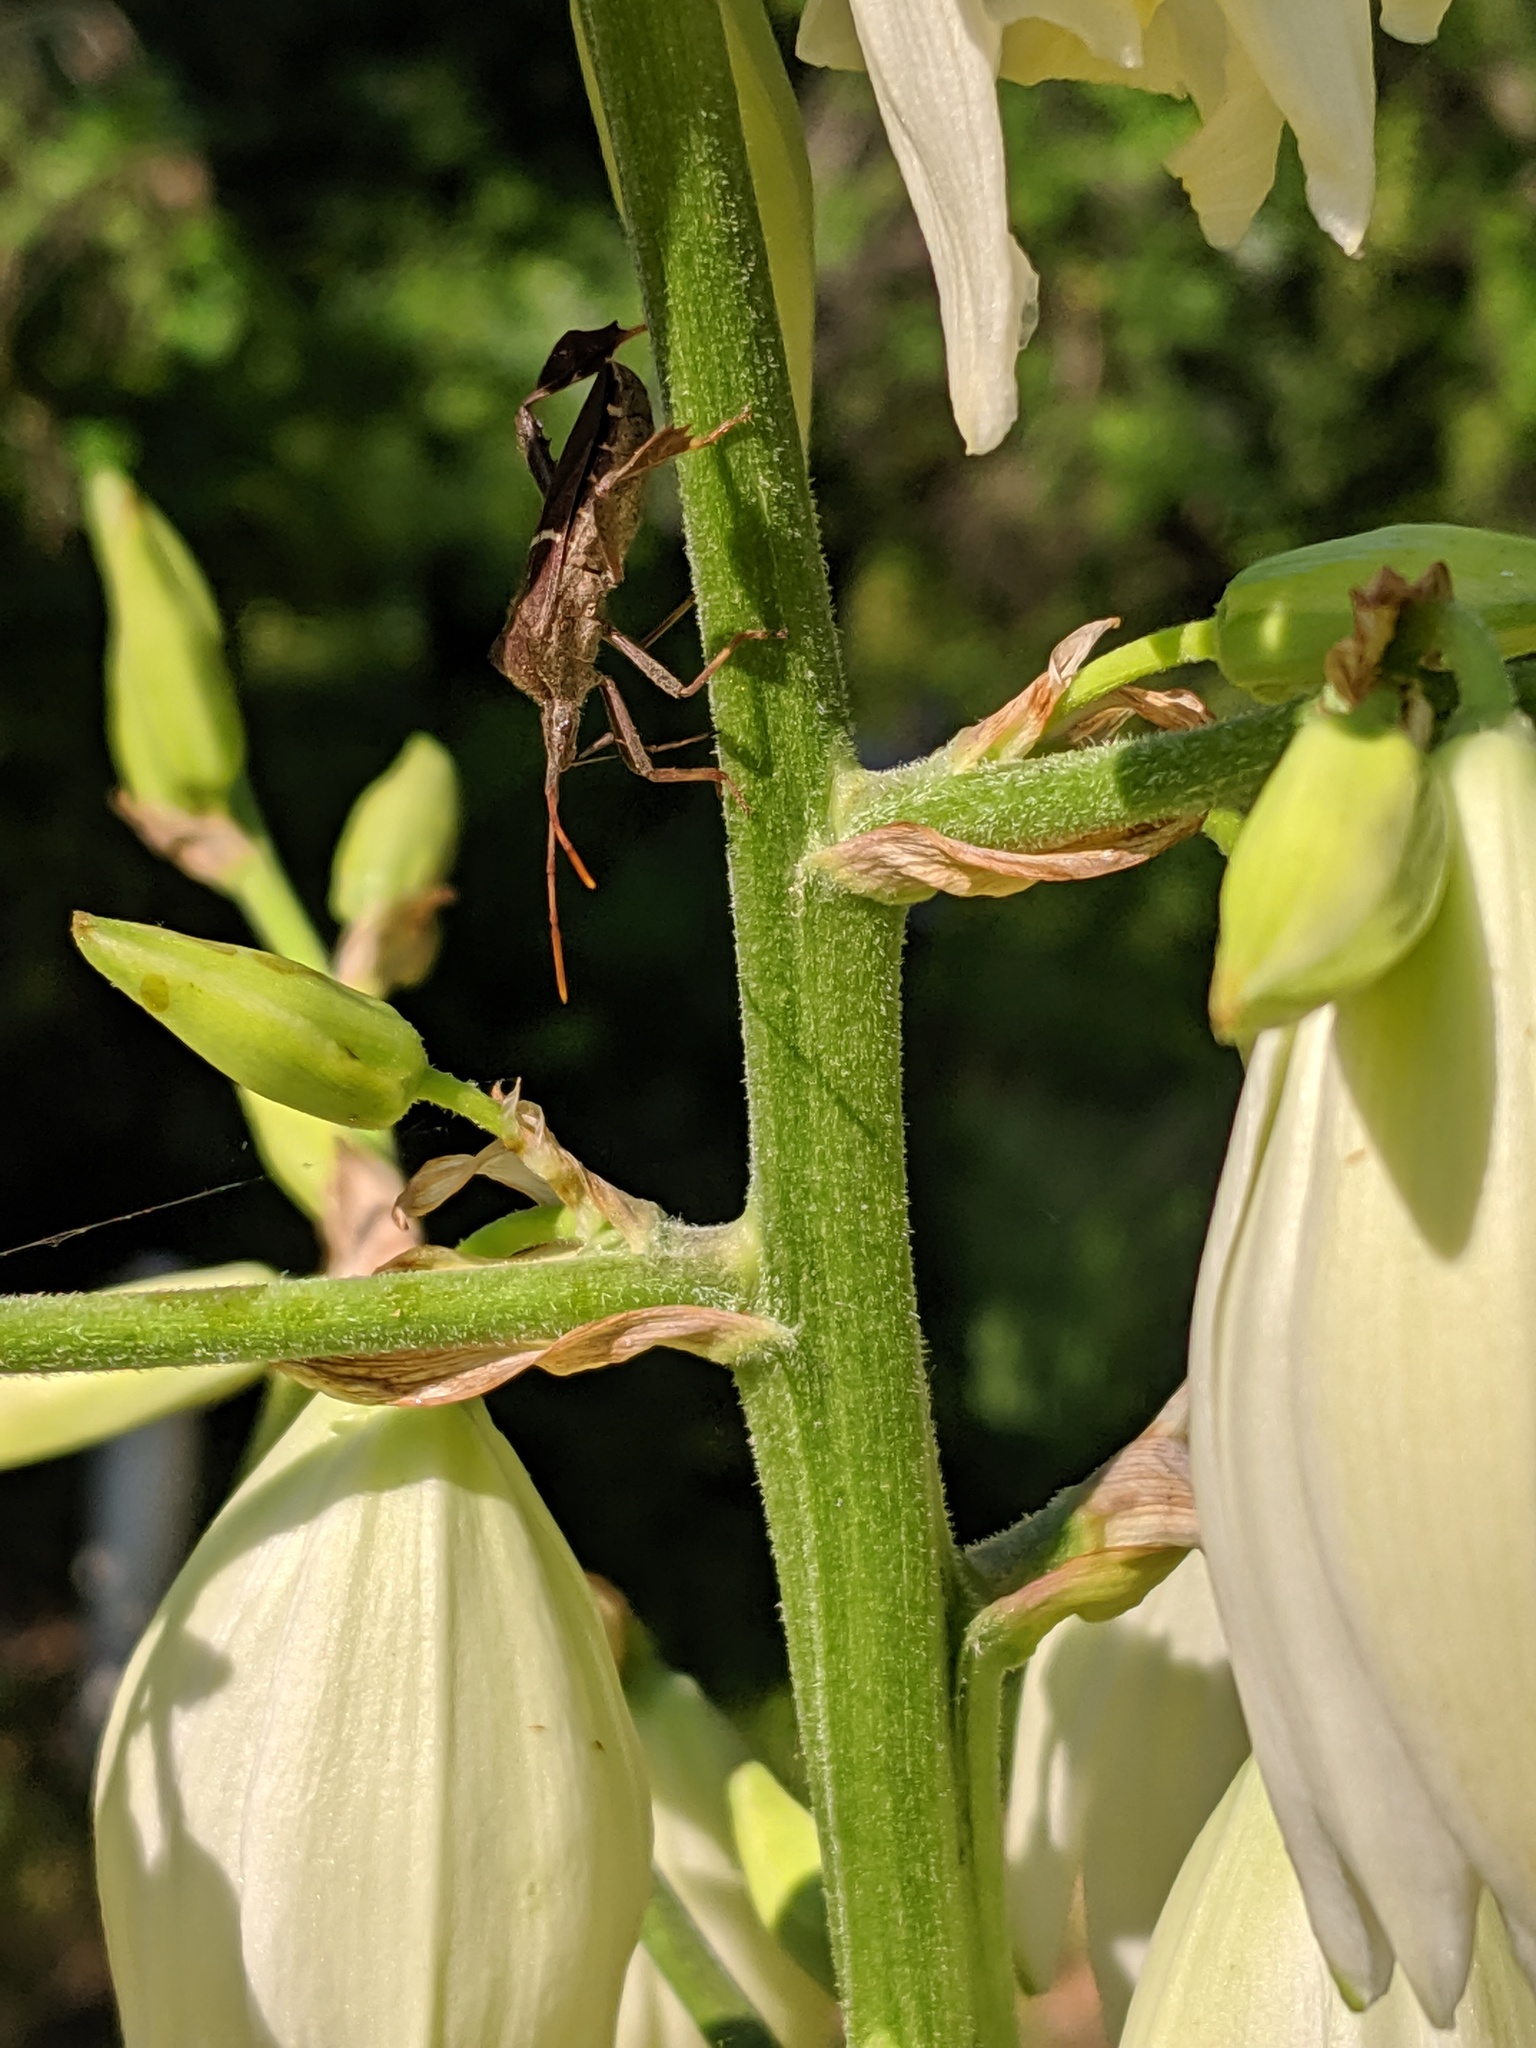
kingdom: Animalia
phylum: Arthropoda
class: Insecta
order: Hemiptera
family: Coreidae
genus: Leptoglossus
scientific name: Leptoglossus phyllopus
